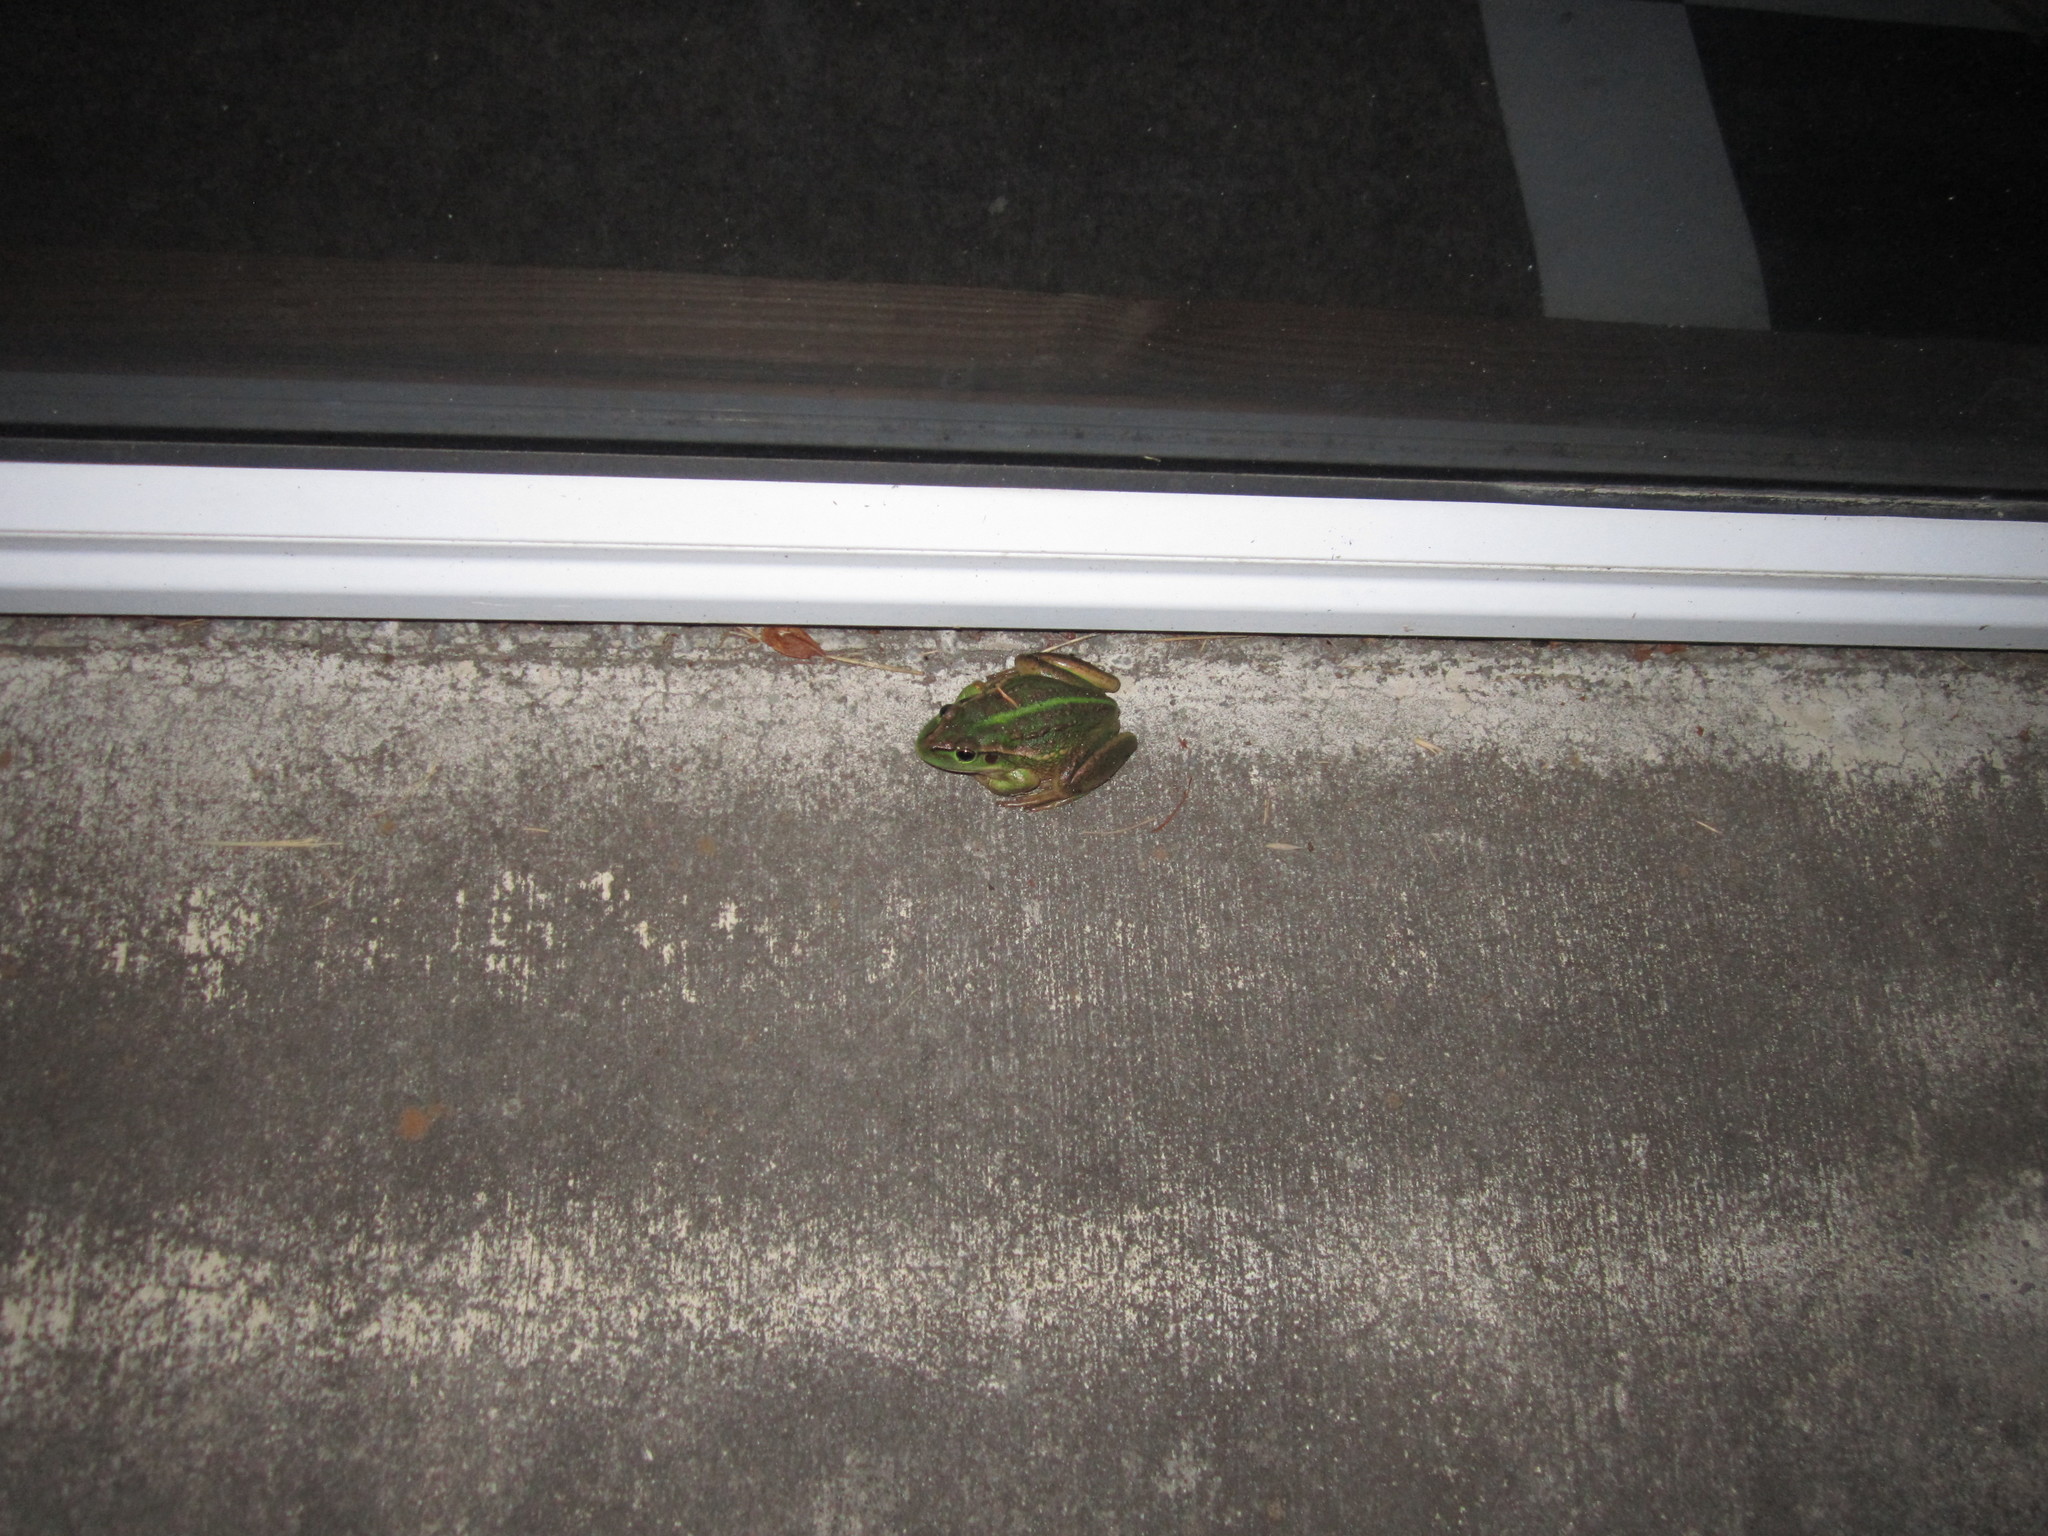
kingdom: Animalia
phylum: Chordata
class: Amphibia
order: Anura
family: Pelodryadidae
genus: Ranoidea
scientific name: Ranoidea raniformis
